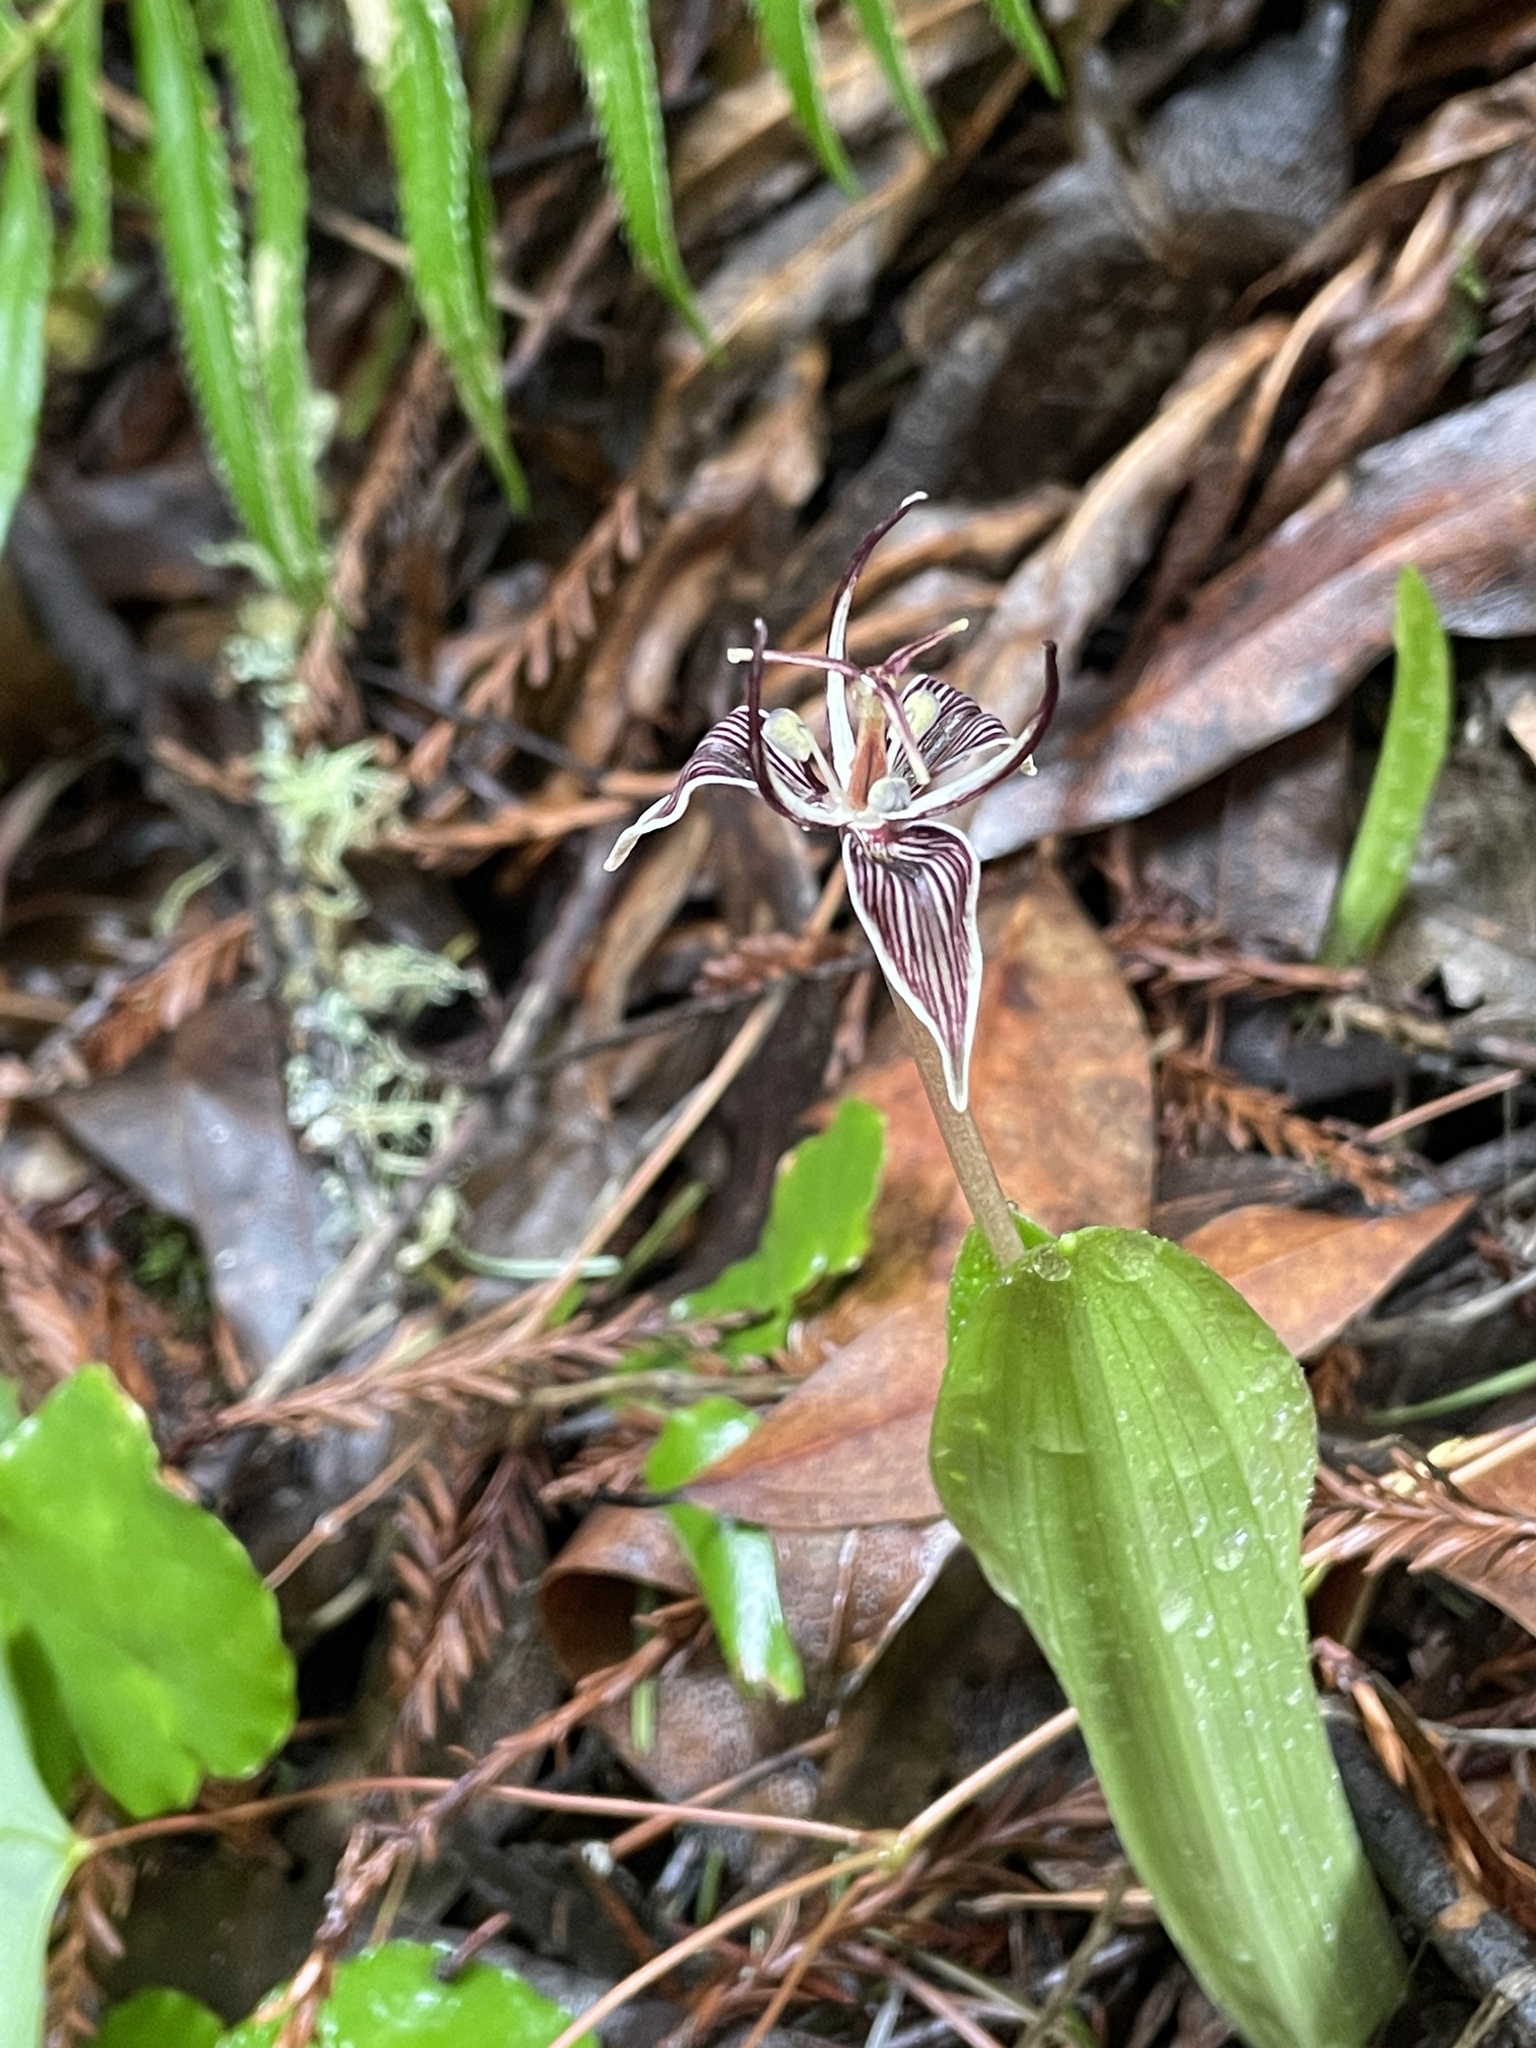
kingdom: Plantae
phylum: Tracheophyta
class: Liliopsida
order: Liliales
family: Liliaceae
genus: Scoliopus
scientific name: Scoliopus bigelovii
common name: Foetid adder's-tongue
